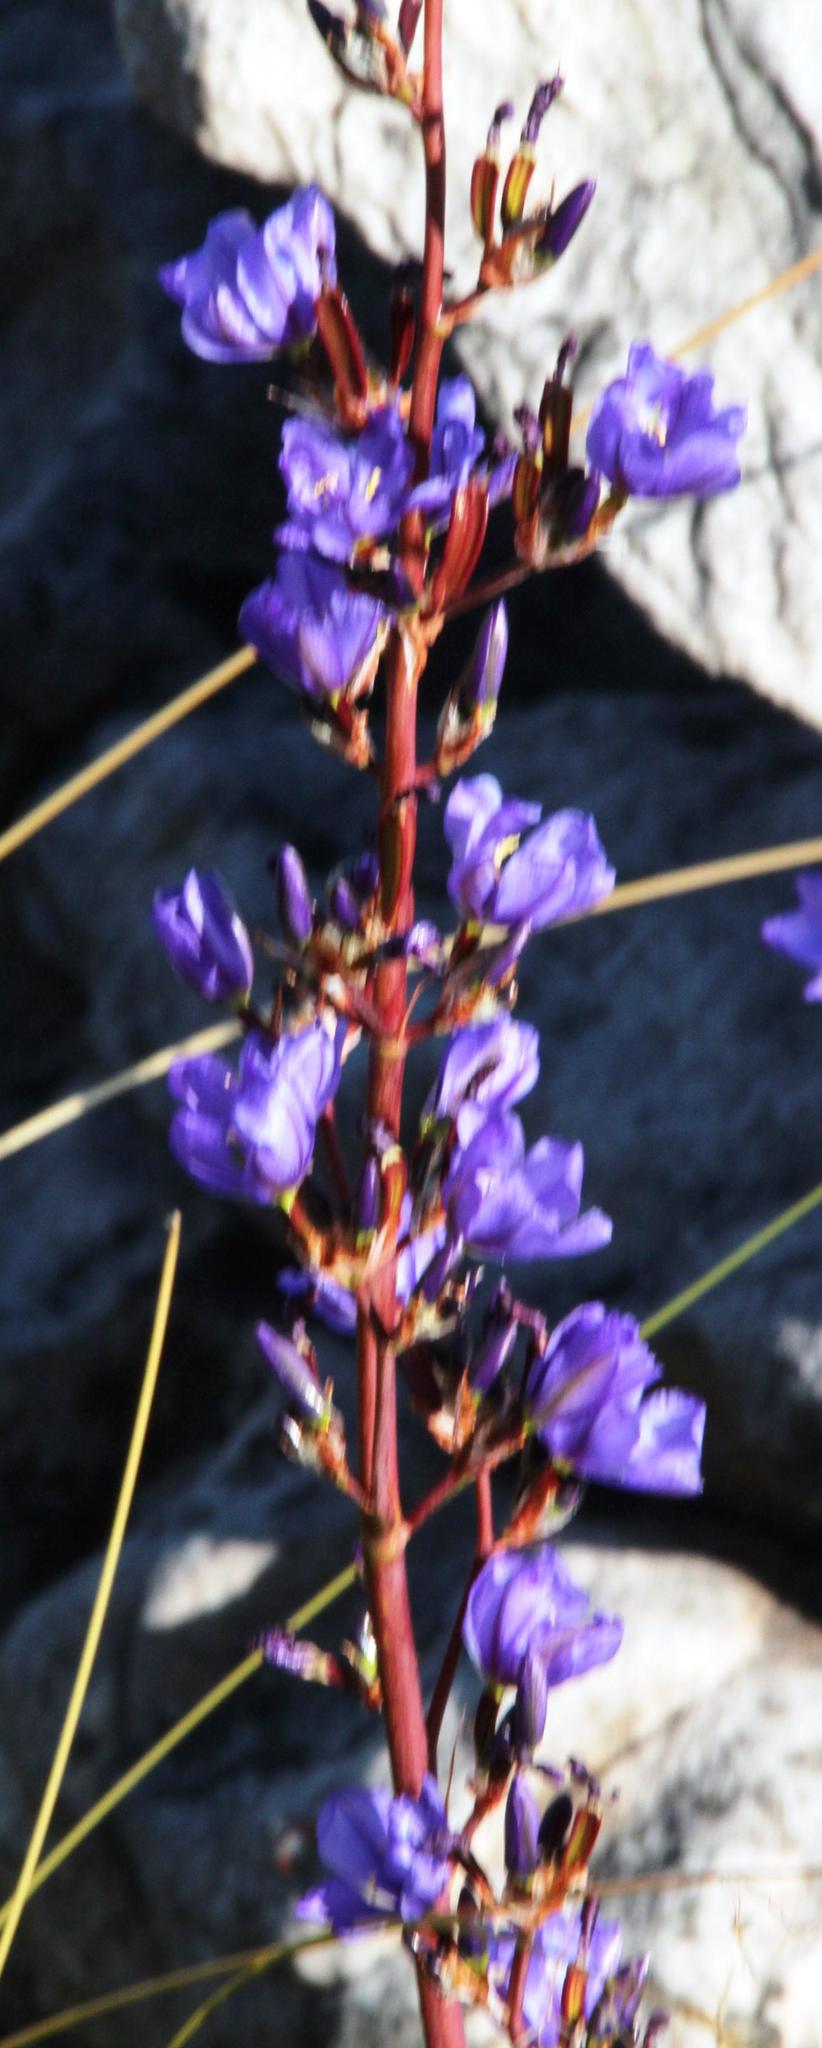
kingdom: Plantae
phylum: Tracheophyta
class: Liliopsida
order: Asparagales
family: Iridaceae
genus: Aristea
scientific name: Aristea bakeri
